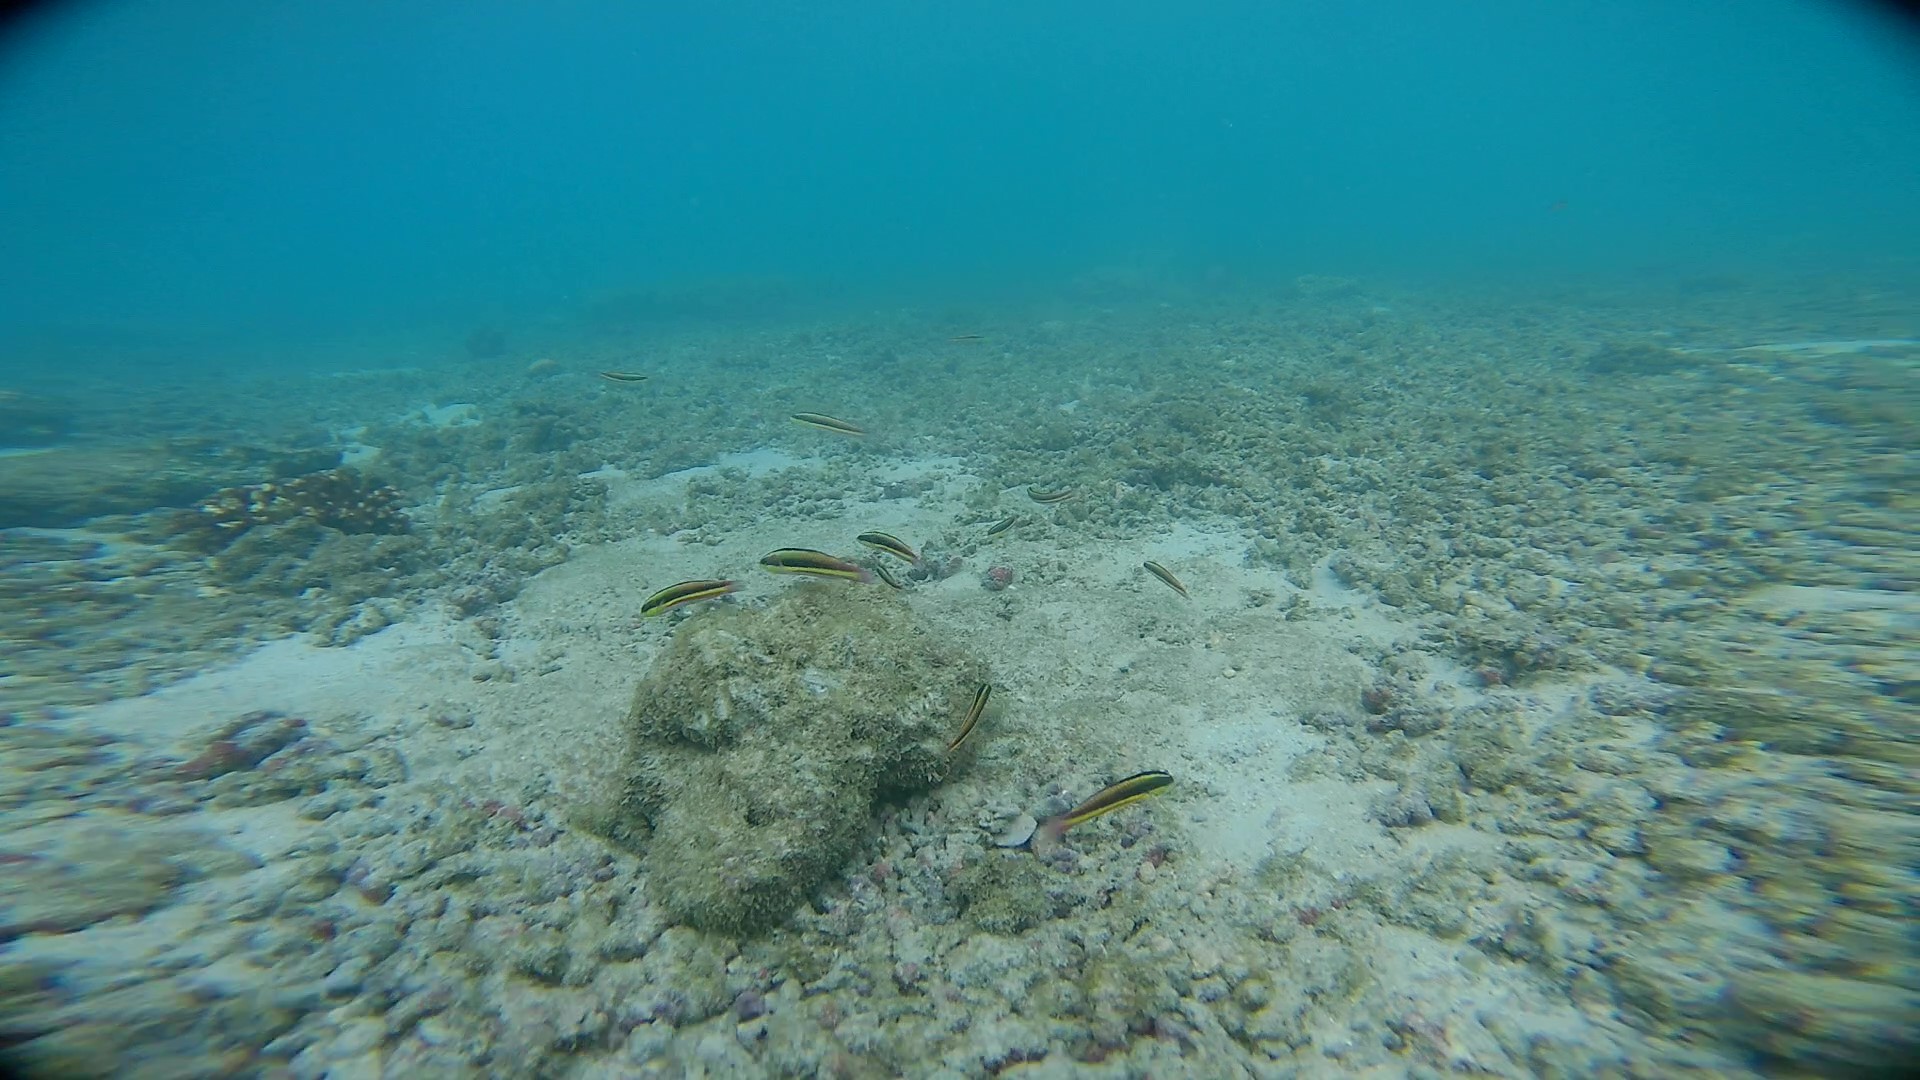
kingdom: Animalia
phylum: Chordata
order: Perciformes
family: Labridae
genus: Thalassoma
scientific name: Thalassoma lucasanum
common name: Cortez rainbow wrasse
